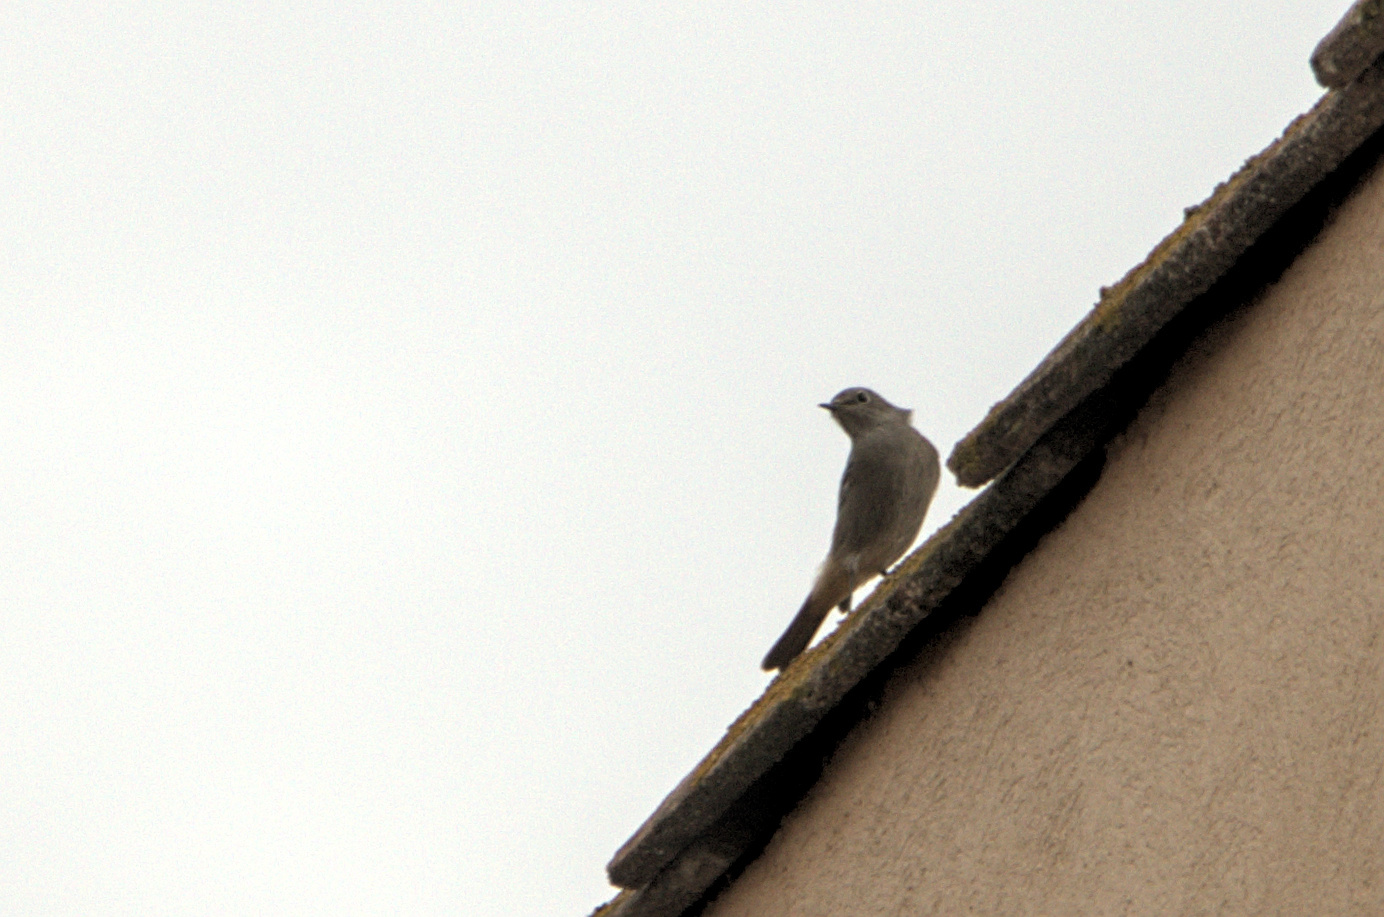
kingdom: Animalia
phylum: Chordata
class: Aves
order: Passeriformes
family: Muscicapidae
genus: Phoenicurus
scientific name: Phoenicurus ochruros
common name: Black redstart
